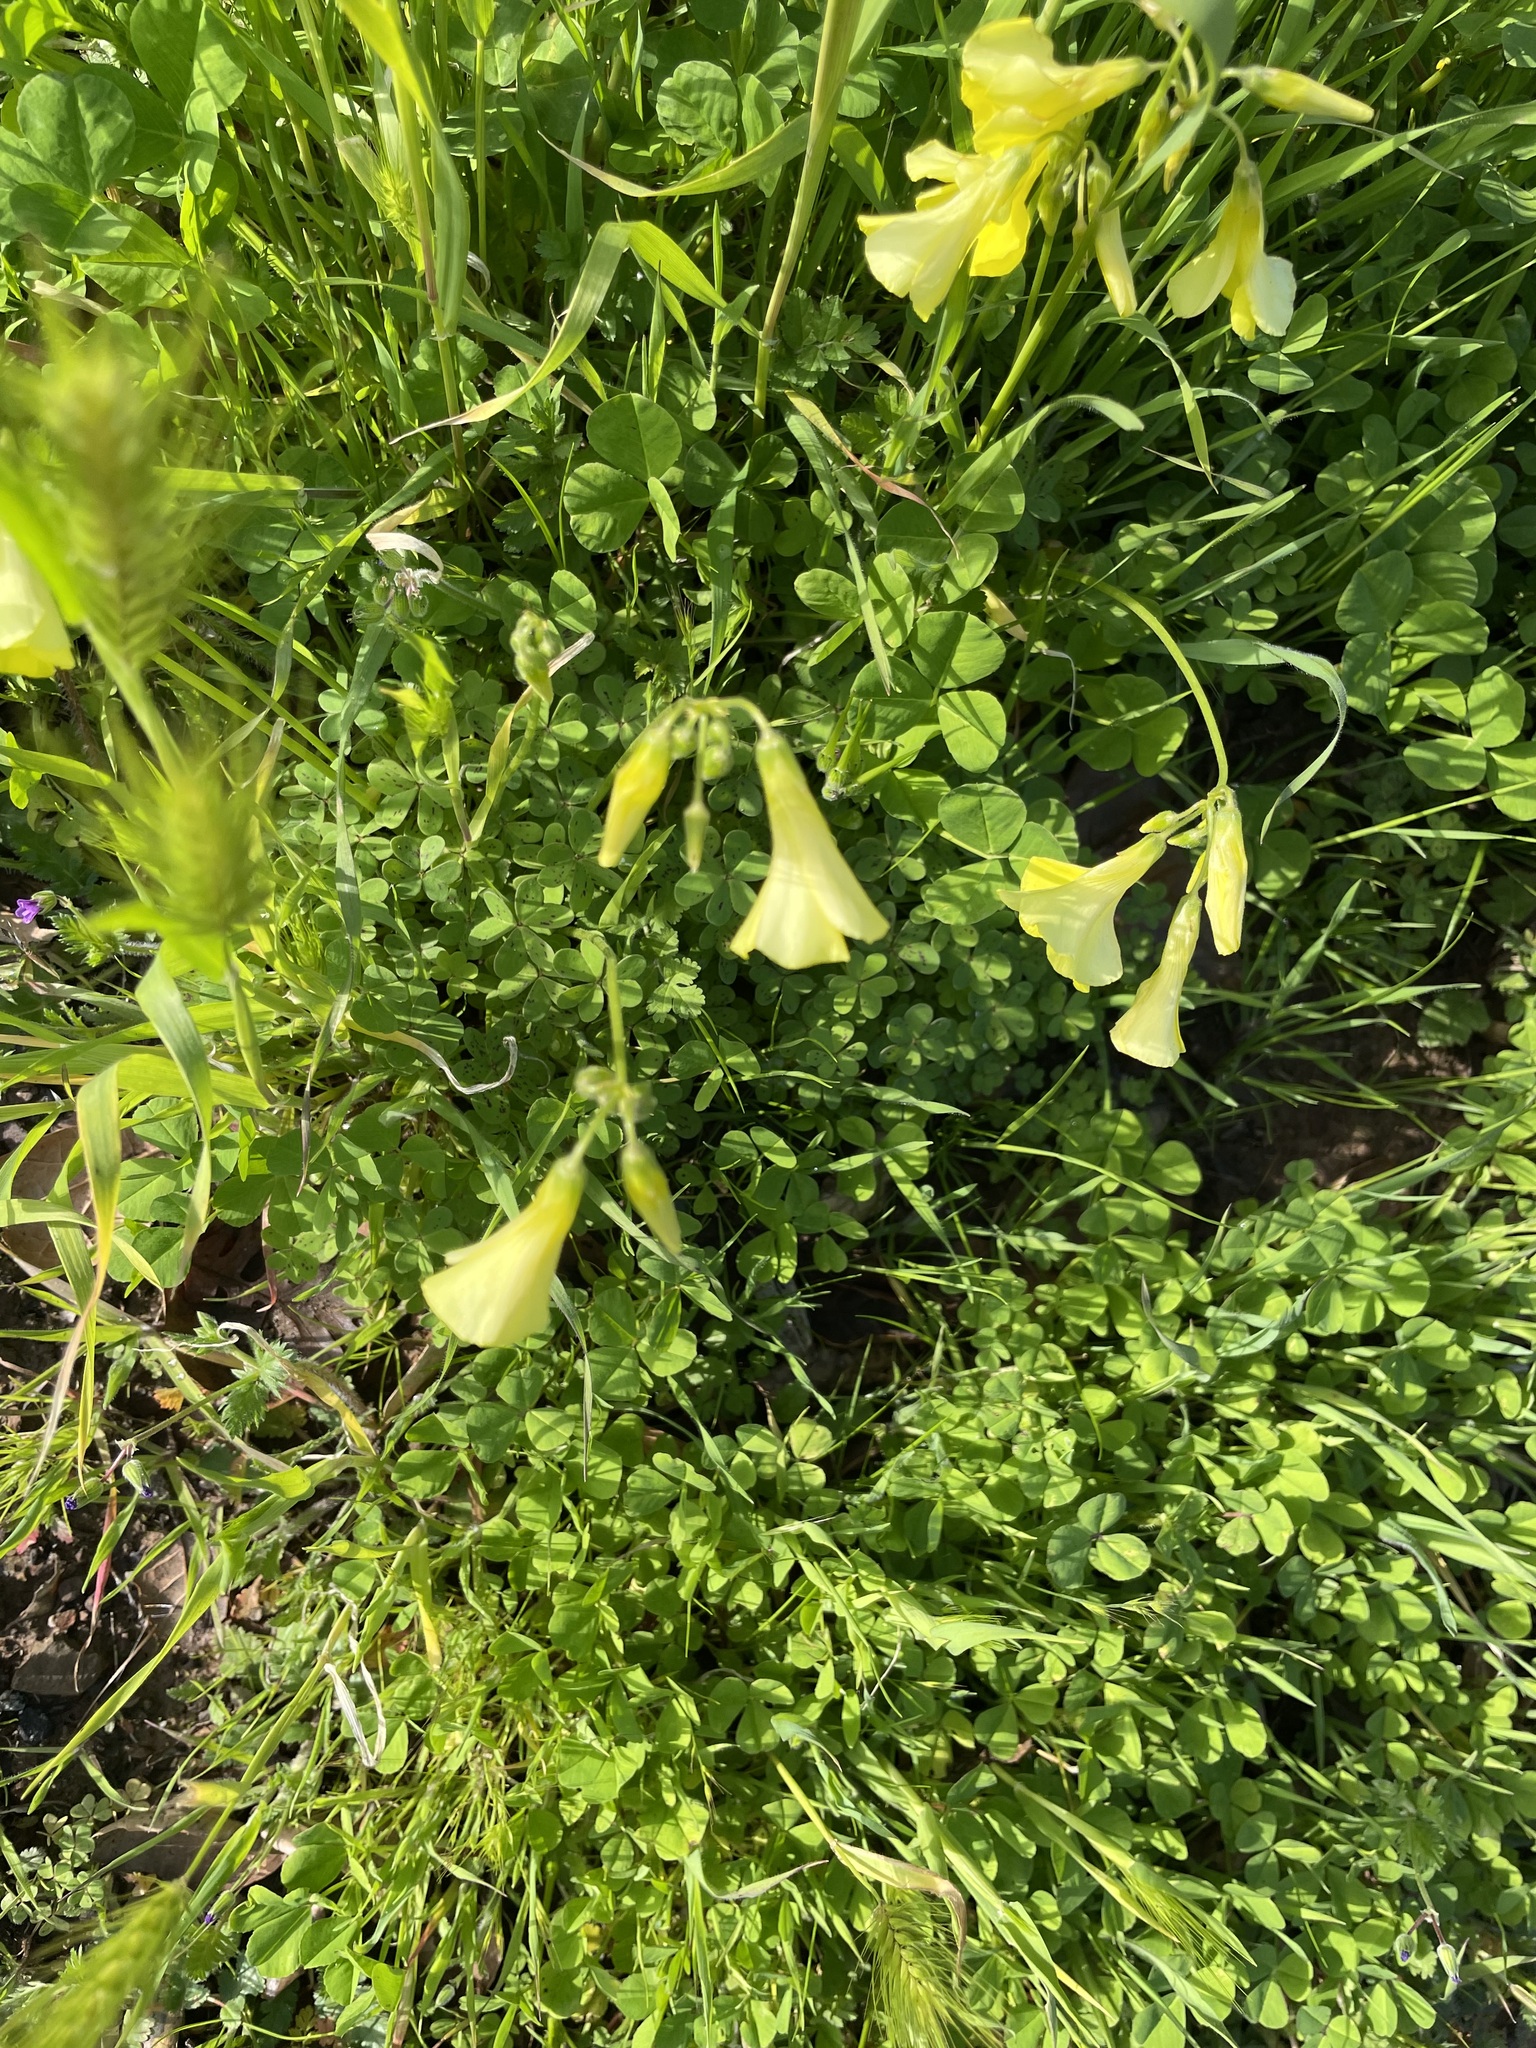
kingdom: Plantae
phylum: Tracheophyta
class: Magnoliopsida
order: Oxalidales
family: Oxalidaceae
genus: Oxalis
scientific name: Oxalis pes-caprae
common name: Bermuda-buttercup
